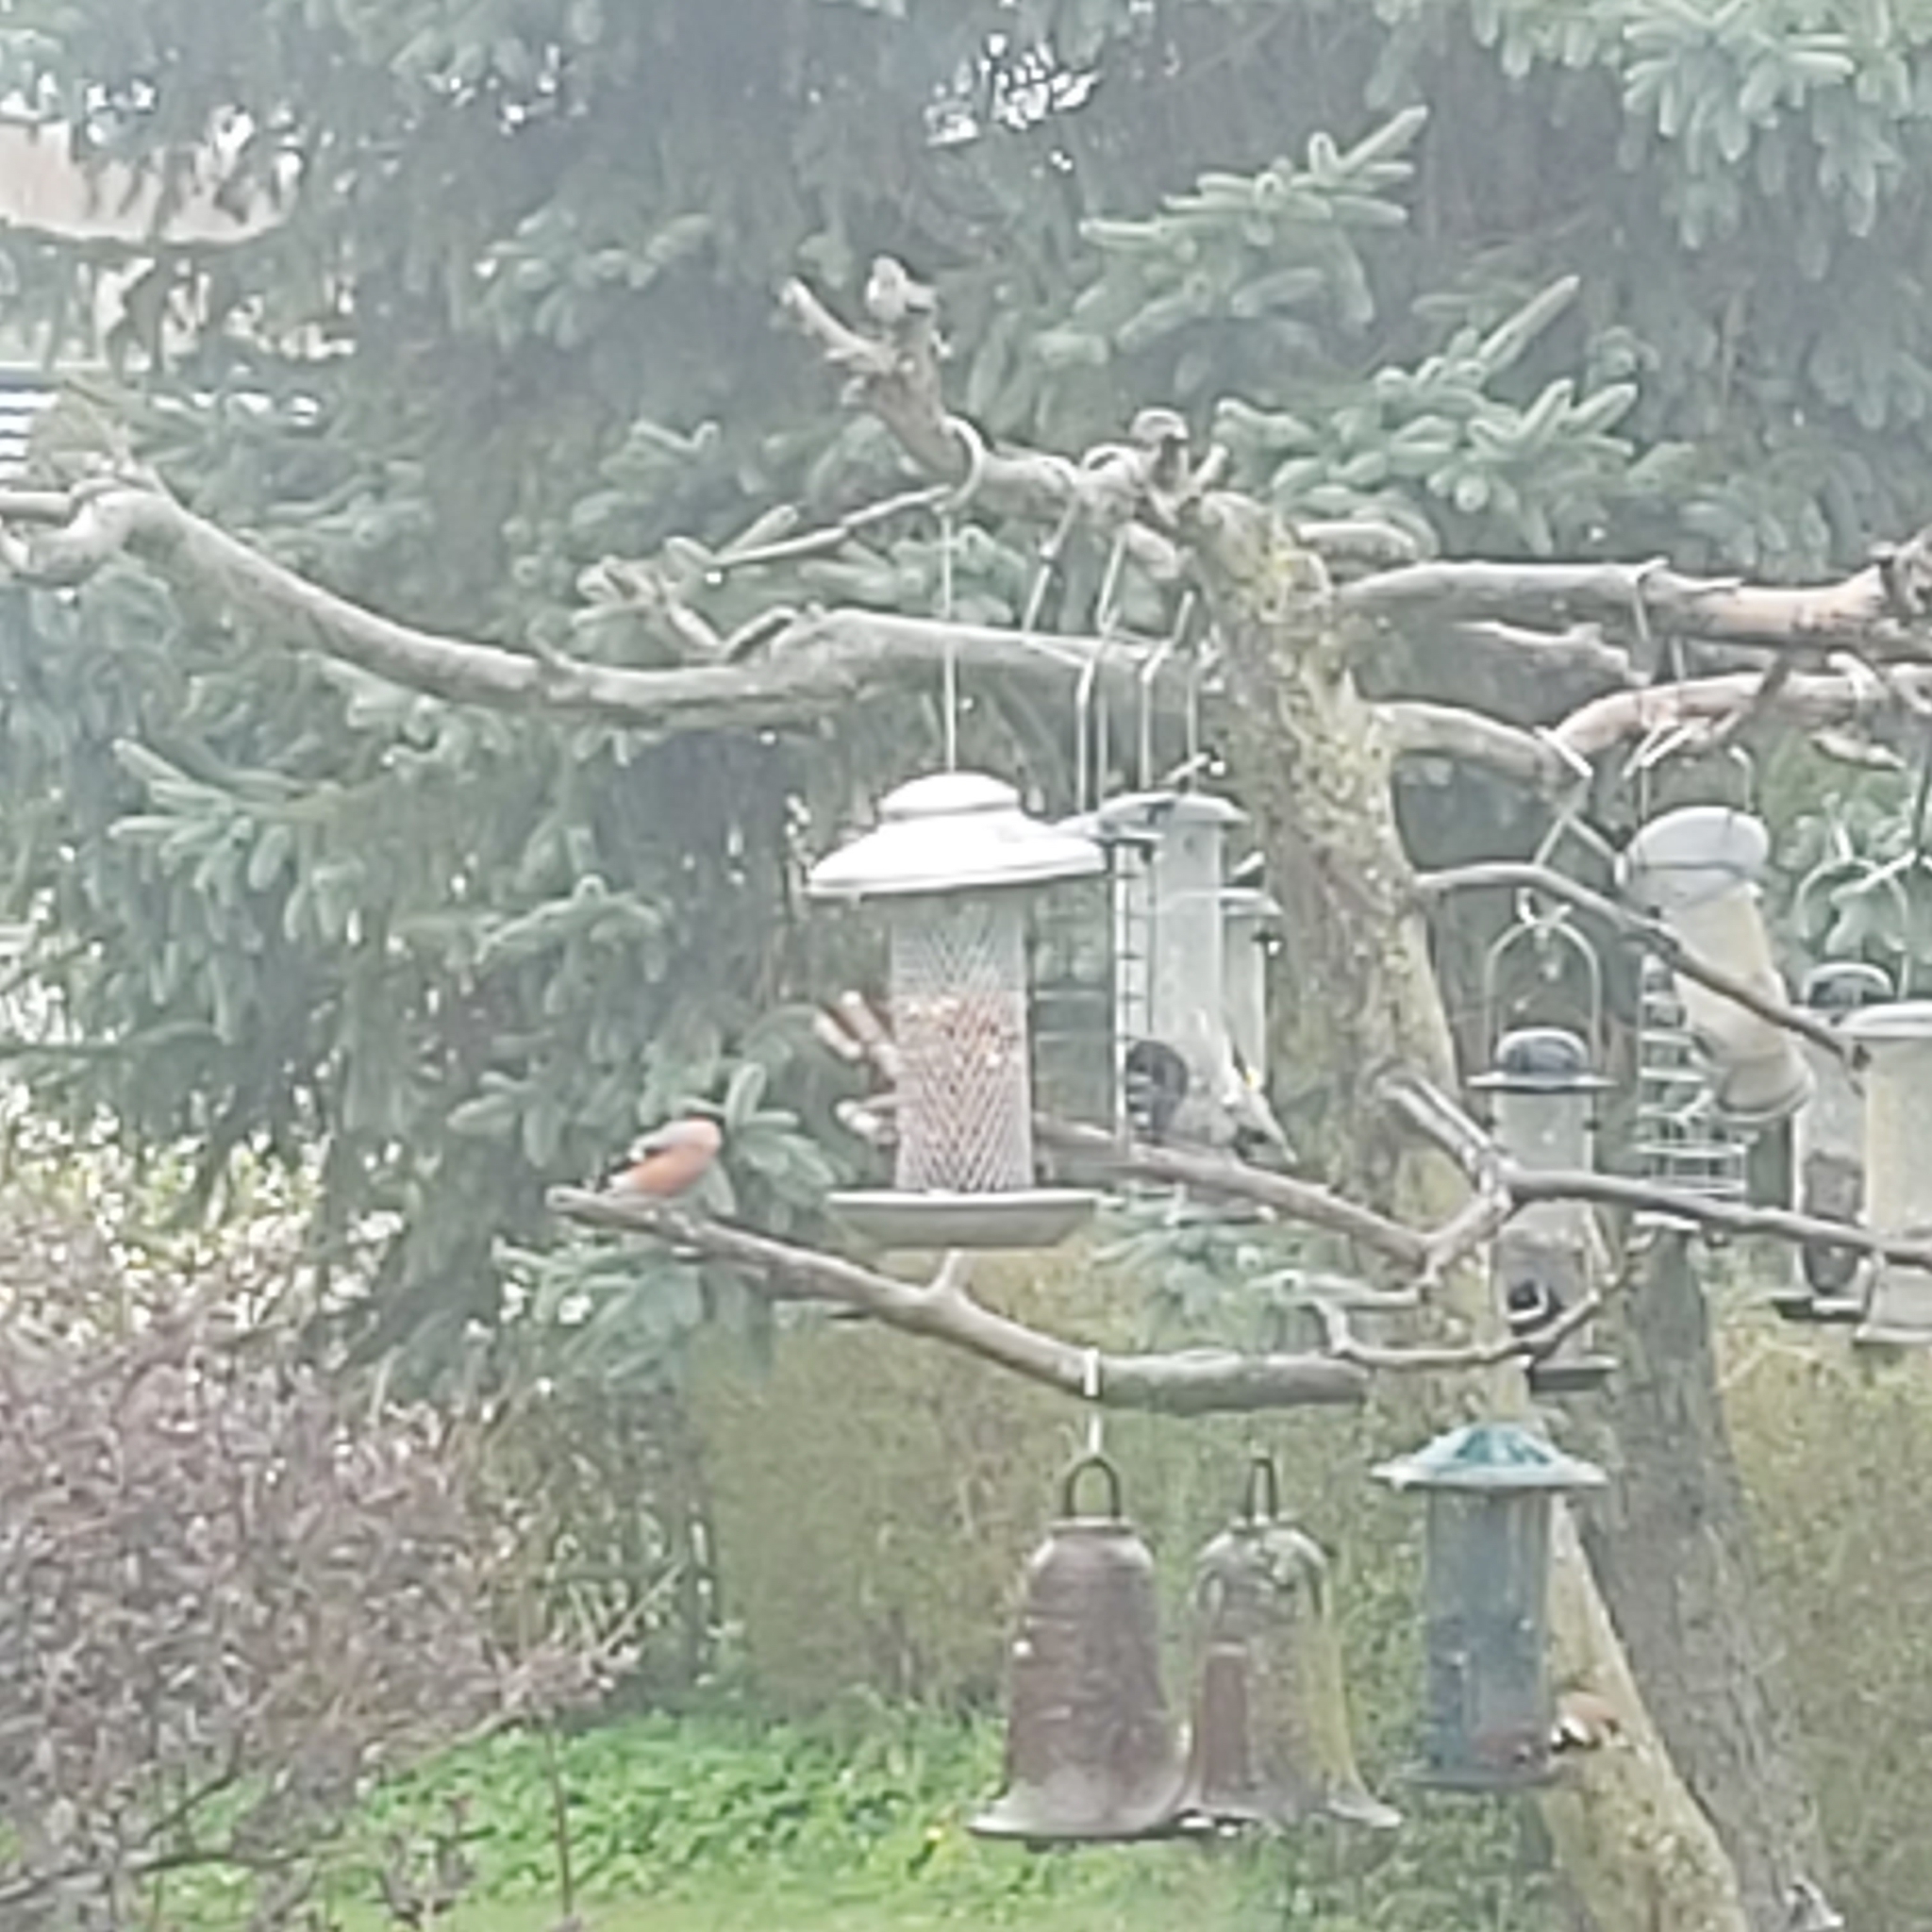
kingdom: Animalia
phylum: Chordata
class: Aves
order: Passeriformes
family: Fringillidae
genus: Pyrrhula
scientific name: Pyrrhula pyrrhula
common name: Eurasian bullfinch
